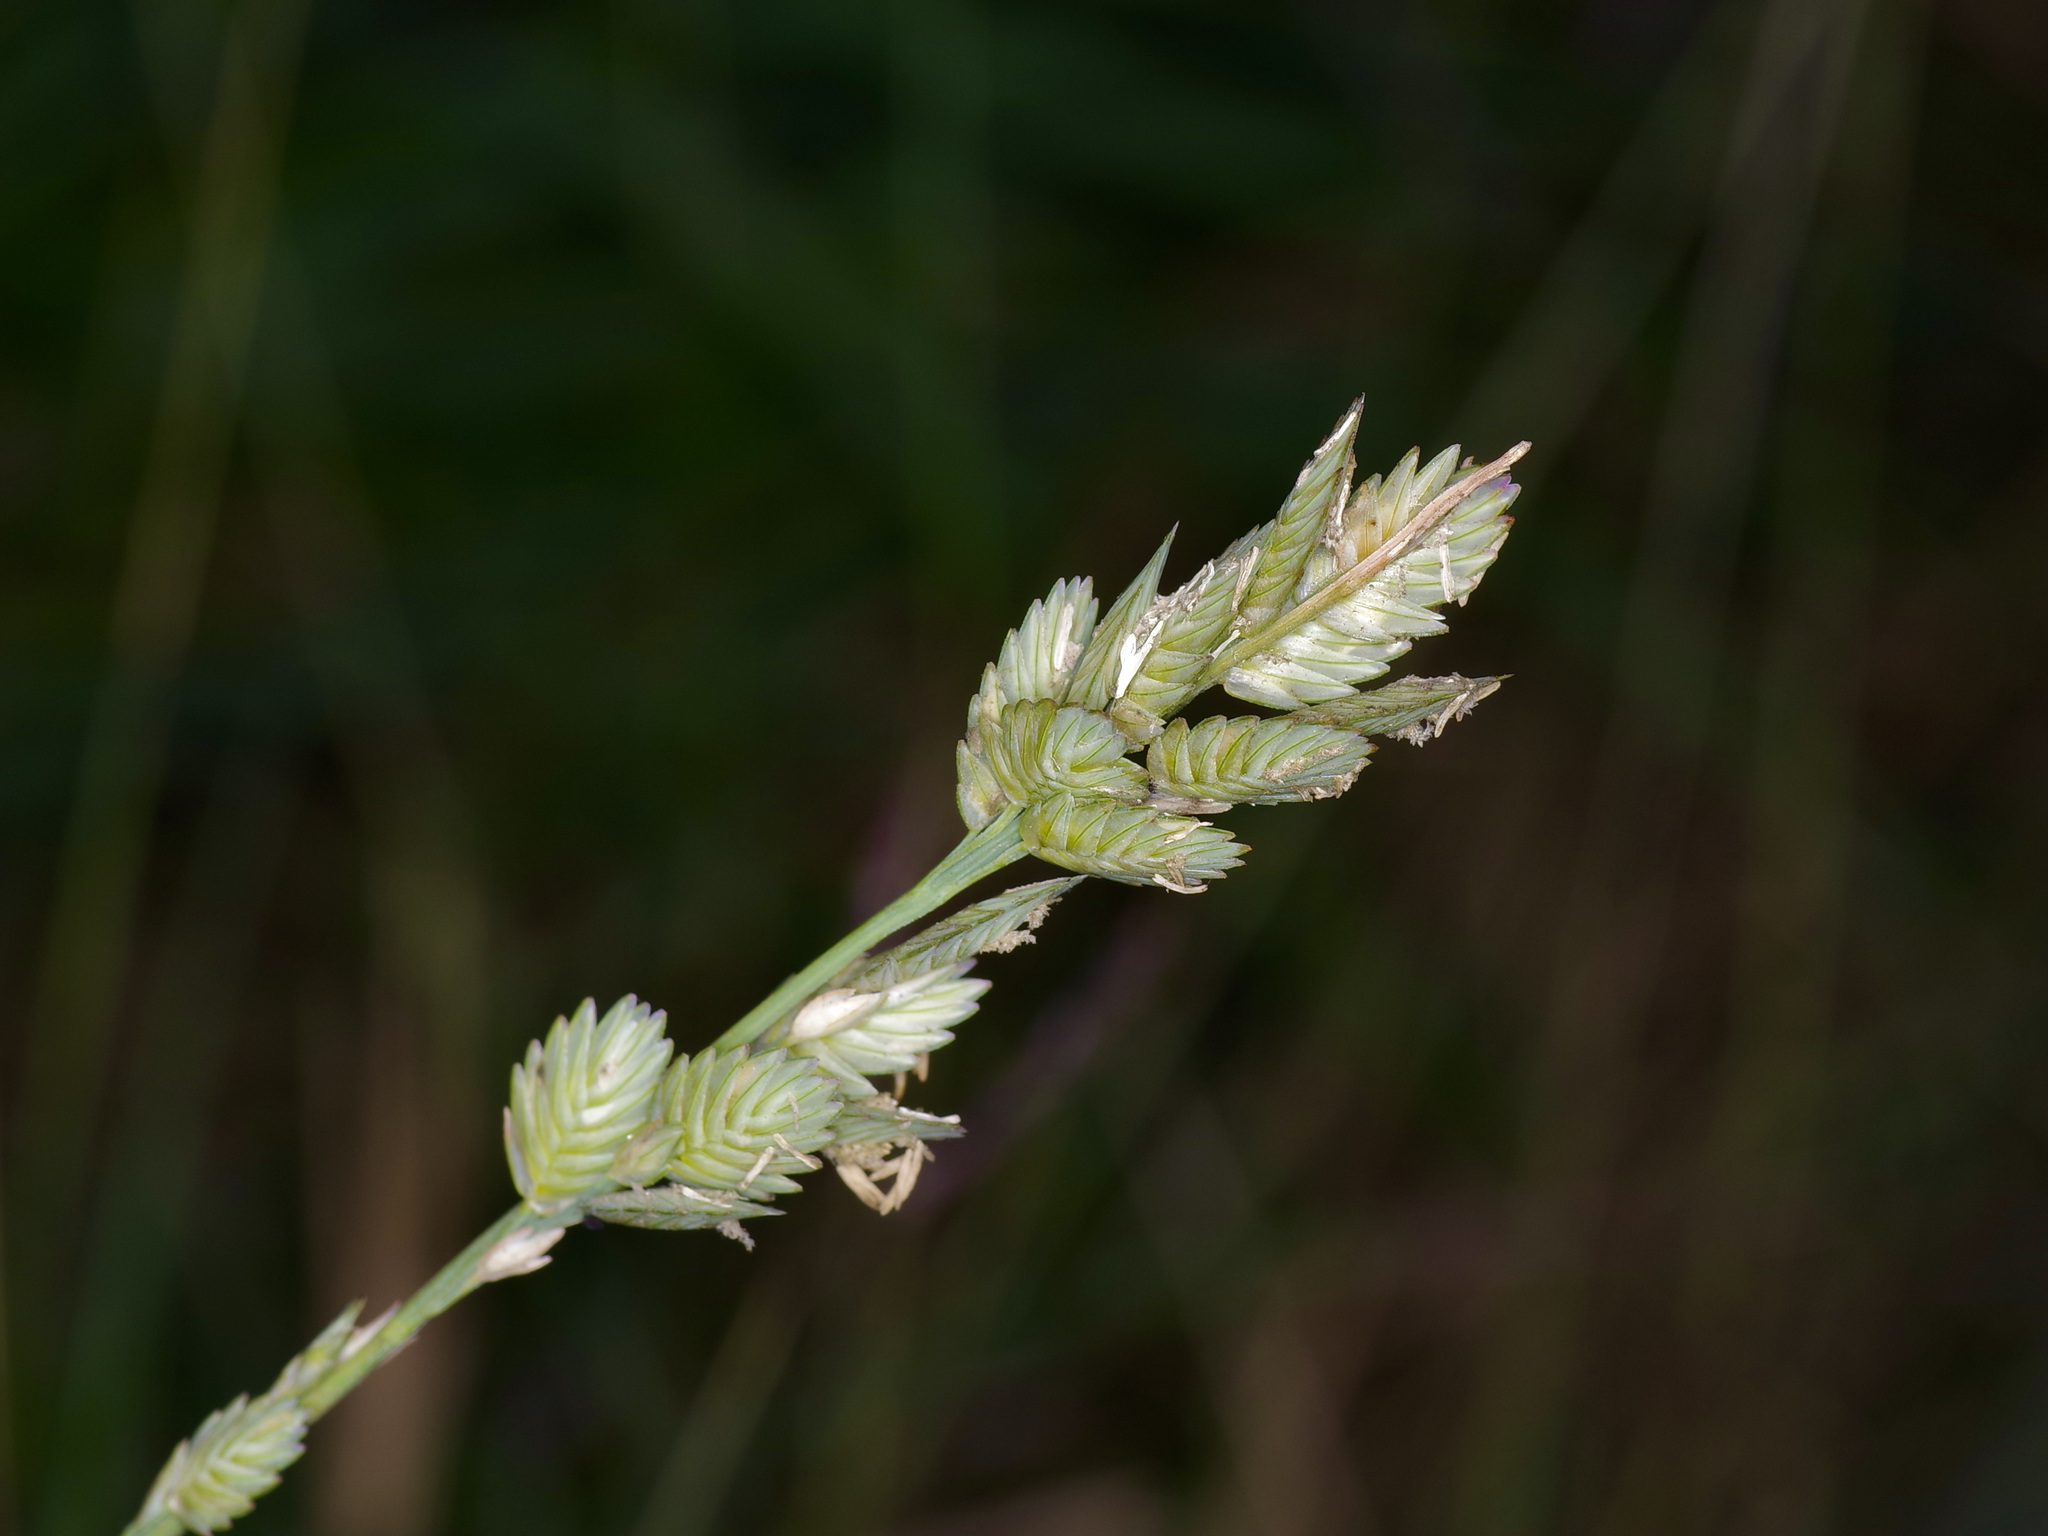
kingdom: Plantae
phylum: Tracheophyta
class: Liliopsida
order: Poales
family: Poaceae
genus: Eragrostis
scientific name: Eragrostis superba
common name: Wilman lovegrass
